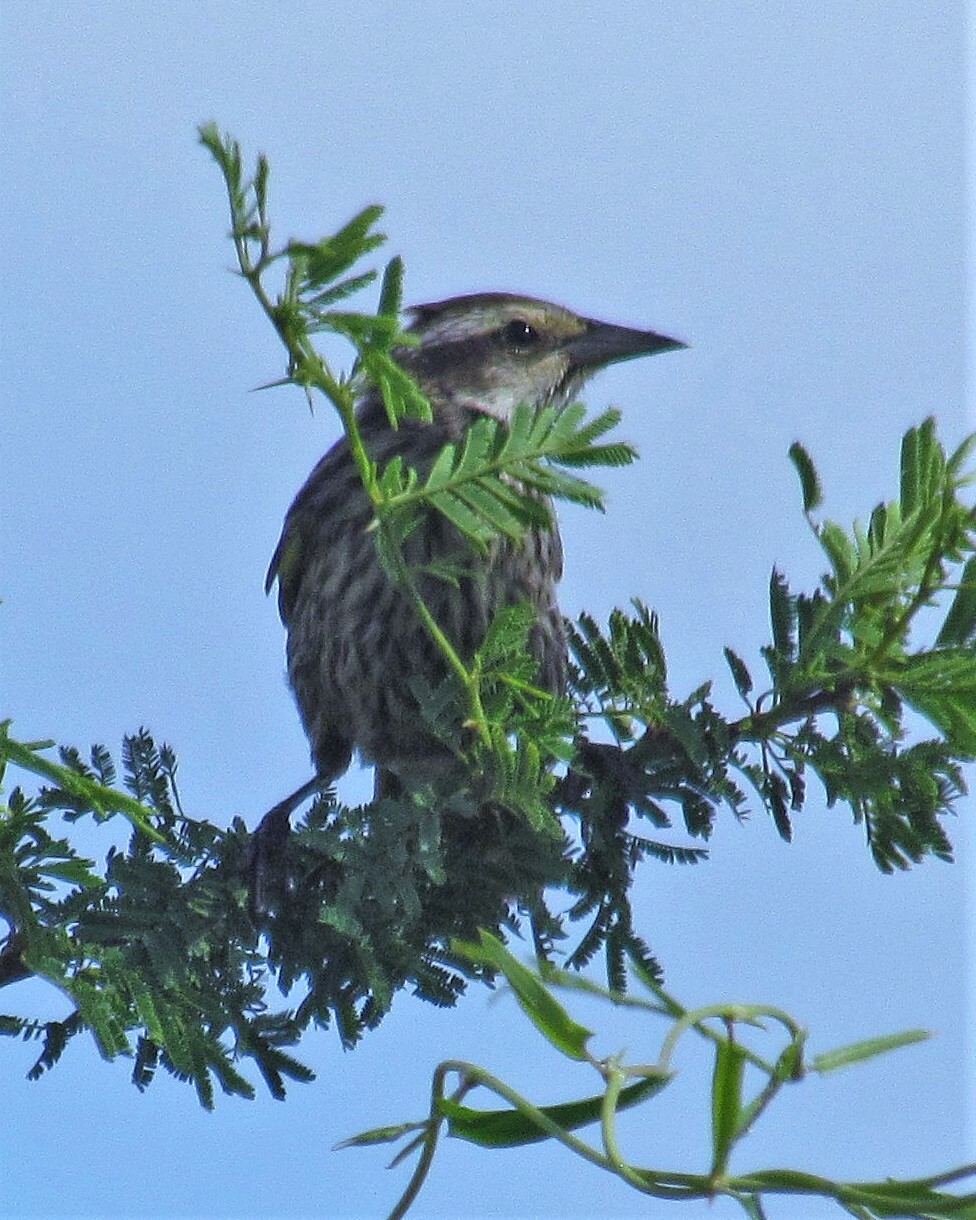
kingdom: Animalia
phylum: Chordata
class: Aves
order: Passeriformes
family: Icteridae
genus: Agelasticus
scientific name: Agelasticus thilius
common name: Yellow-winged blackbird
